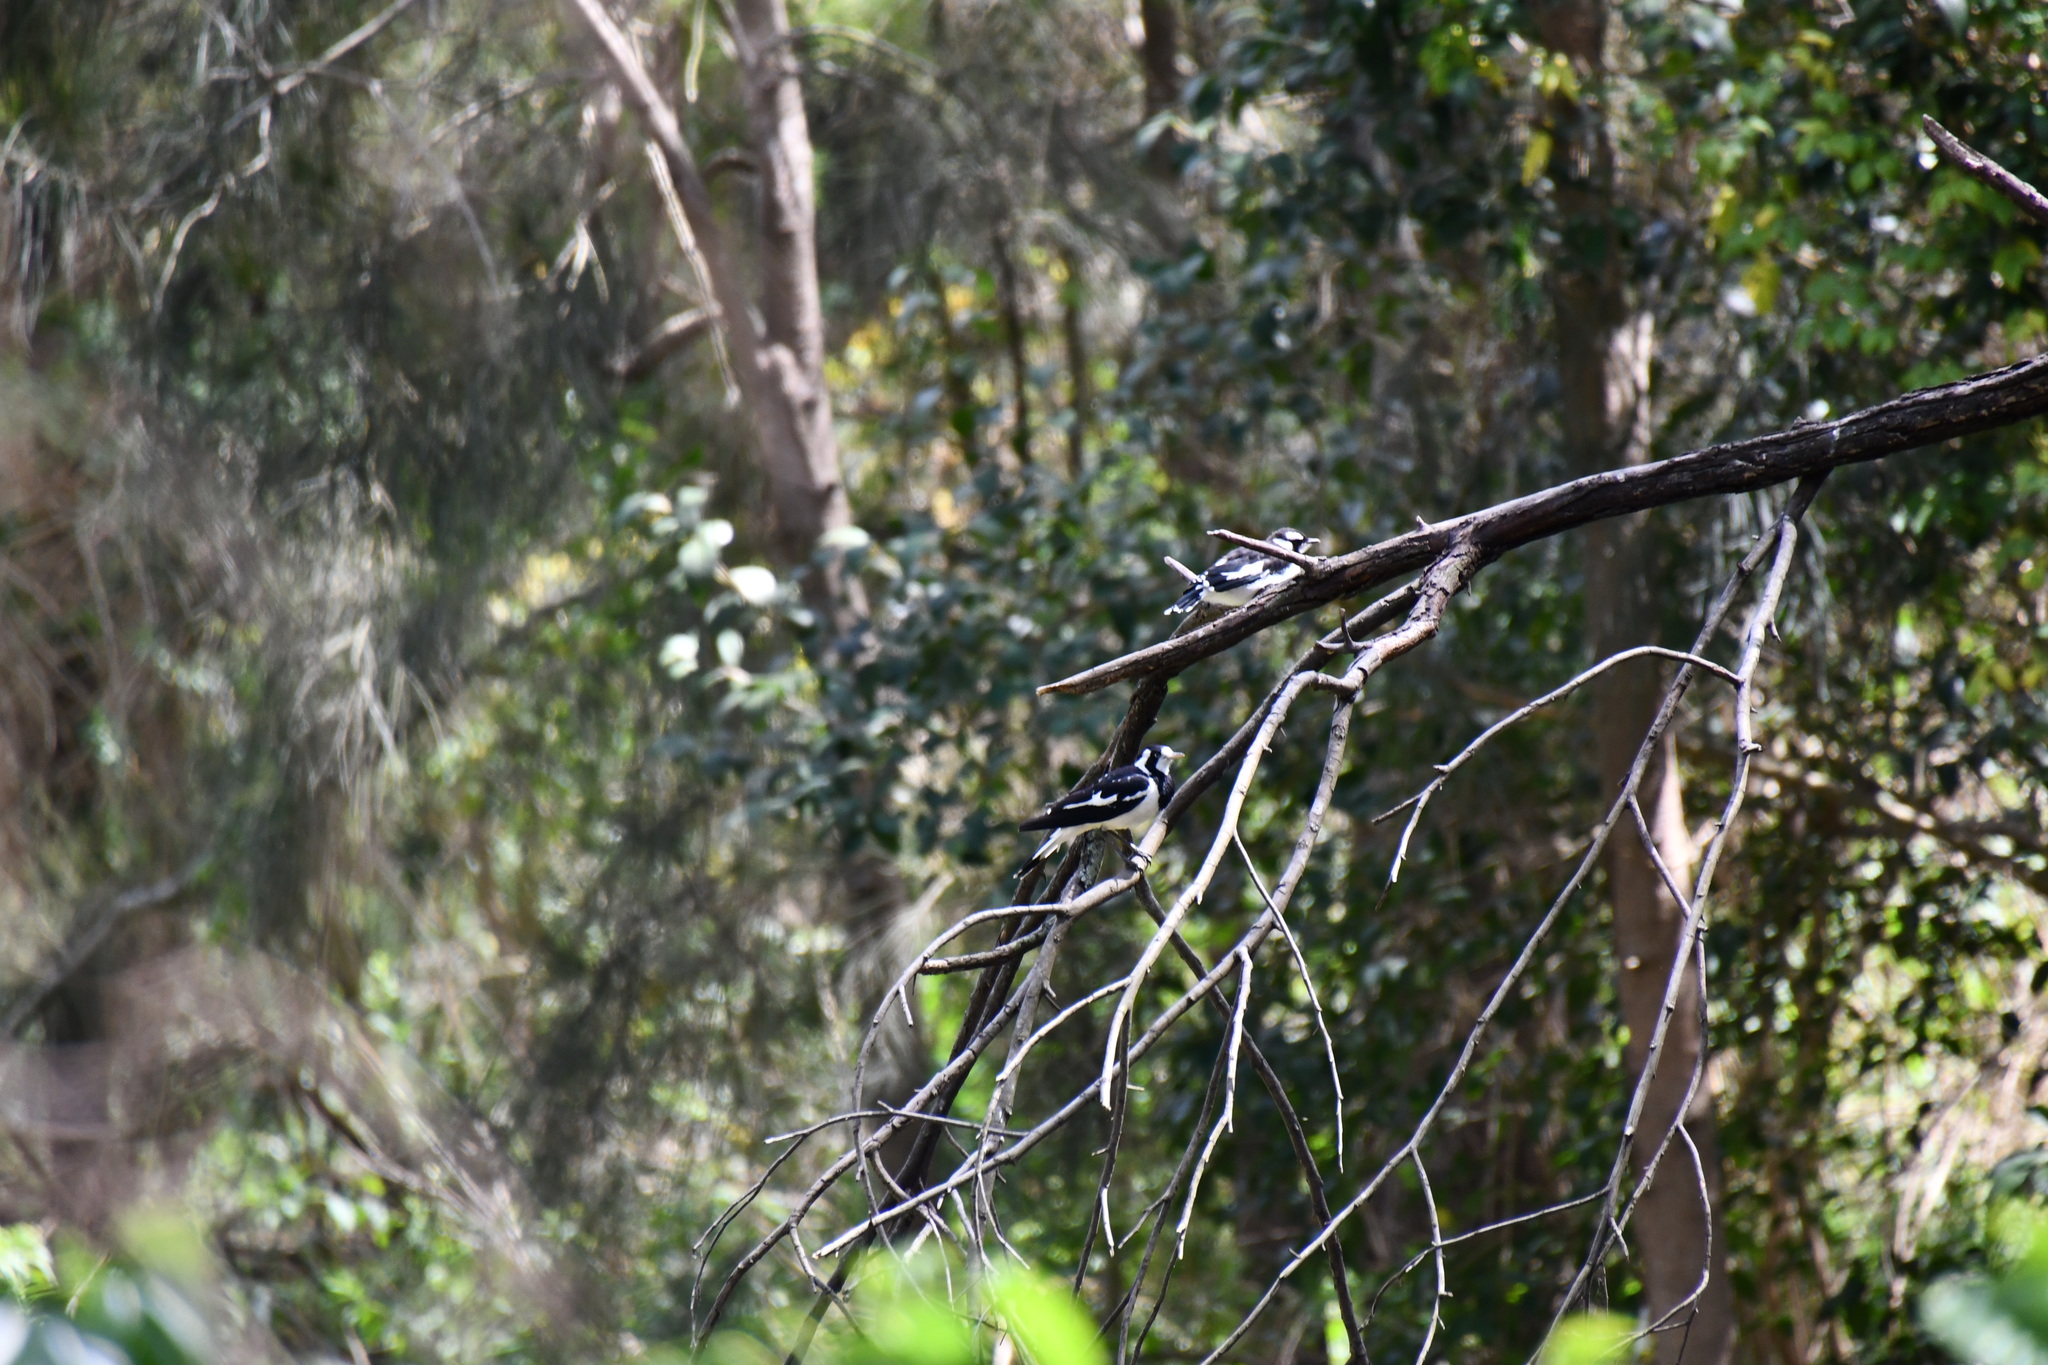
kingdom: Animalia
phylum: Chordata
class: Aves
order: Passeriformes
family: Monarchidae
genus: Grallina
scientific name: Grallina cyanoleuca
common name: Magpie-lark
